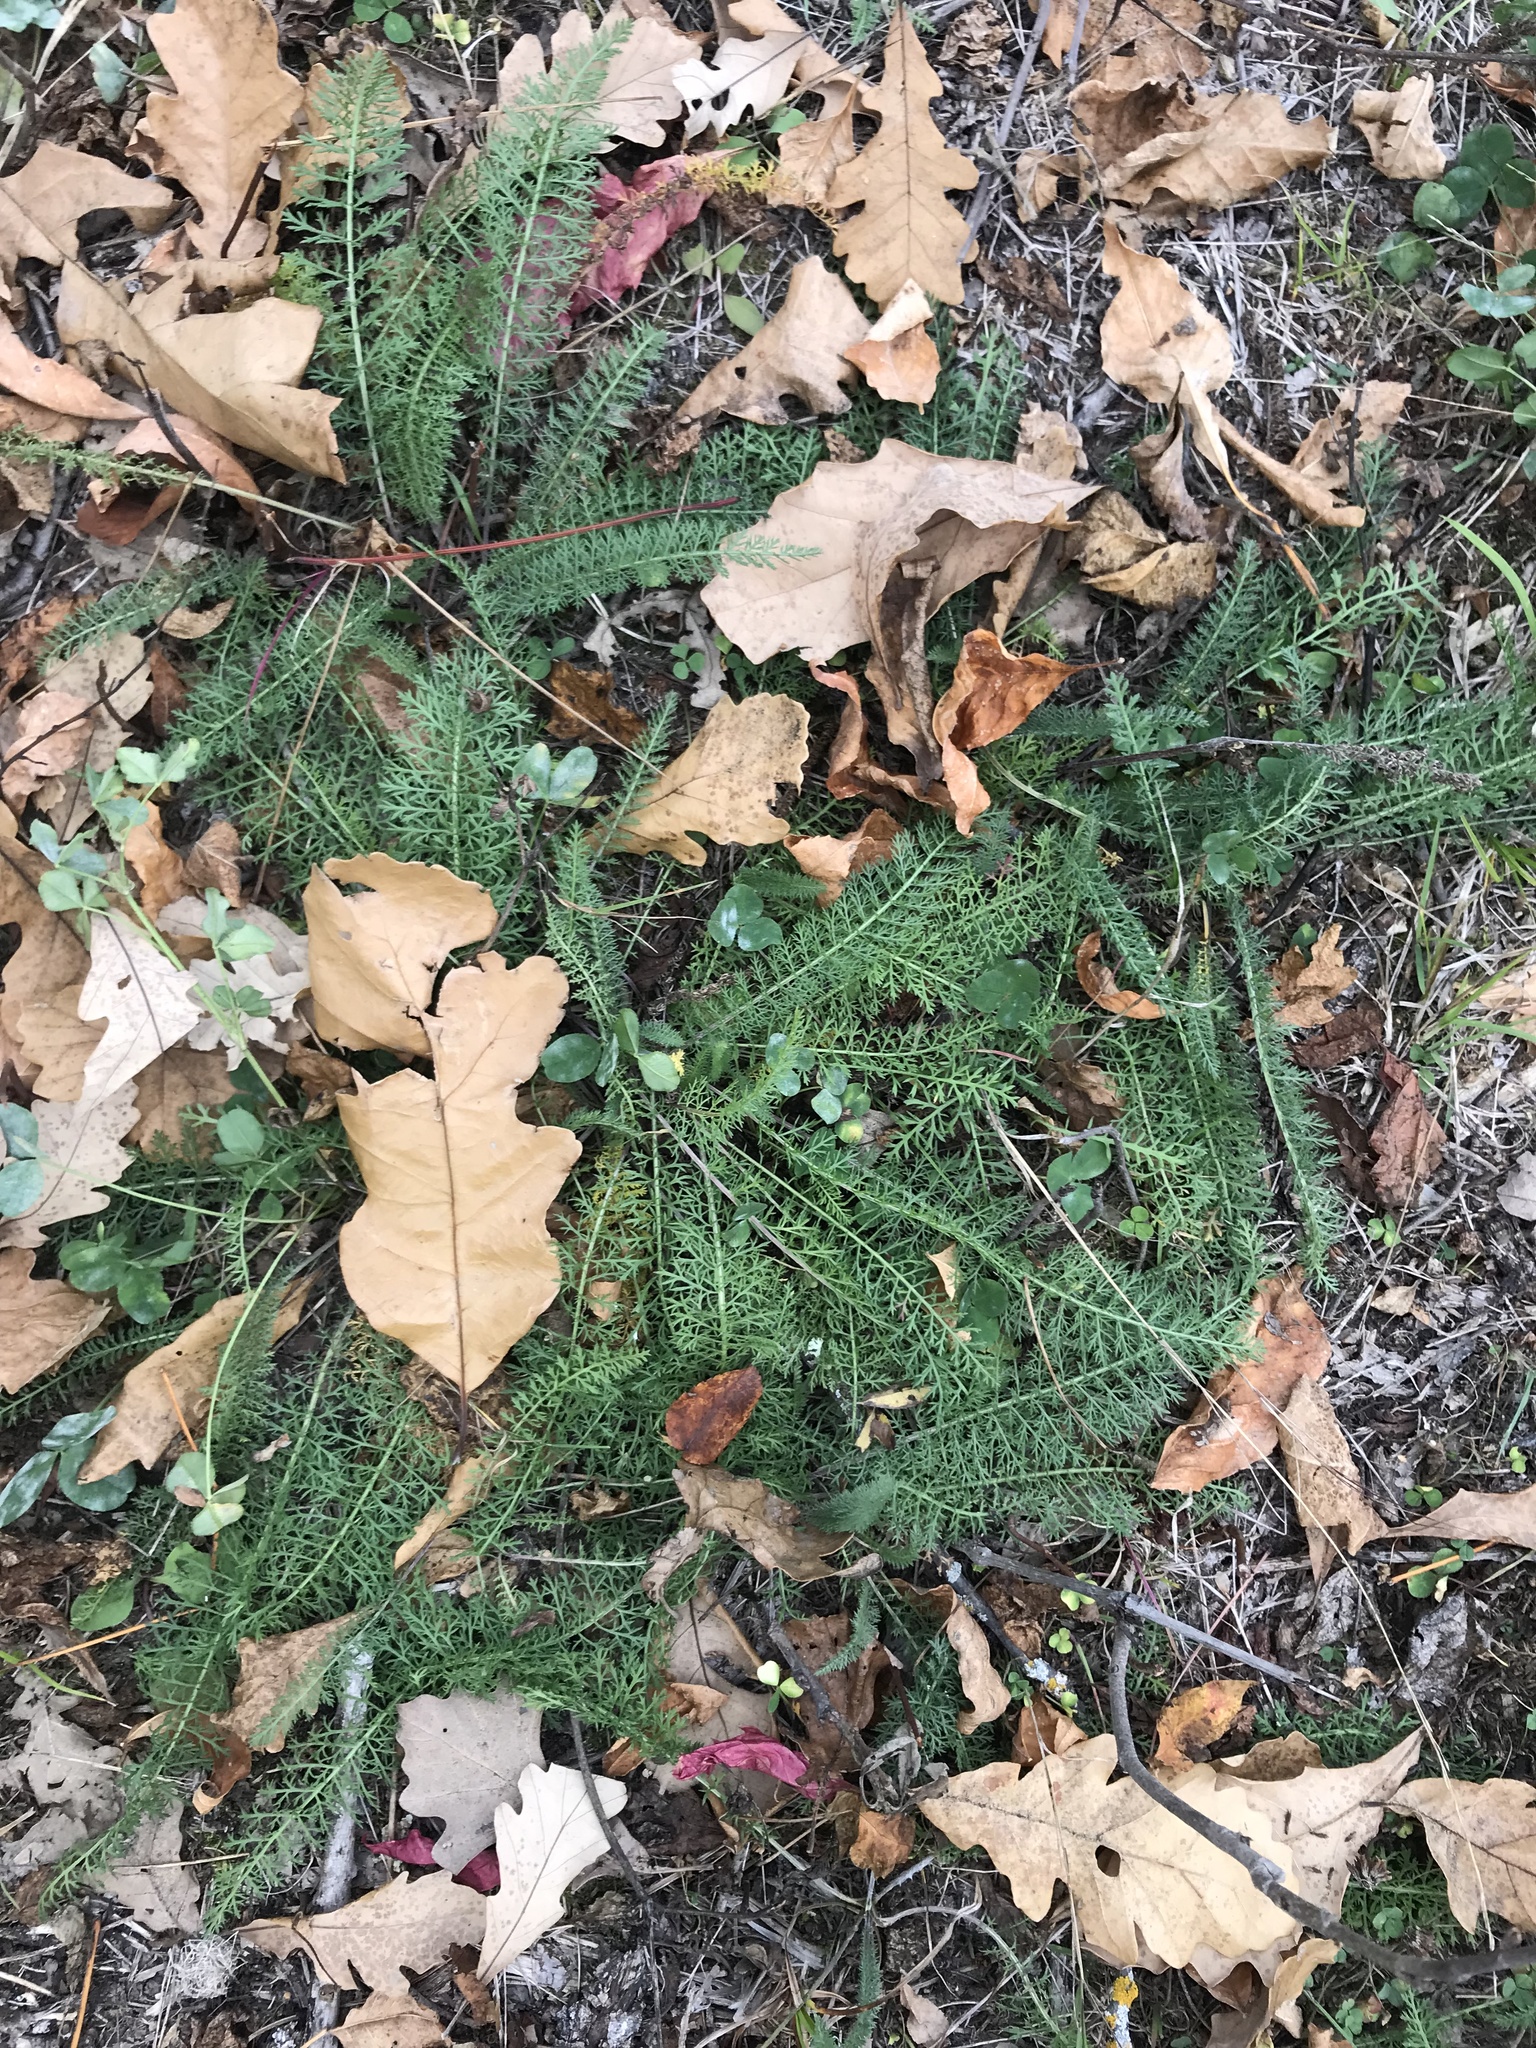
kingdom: Plantae
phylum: Tracheophyta
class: Magnoliopsida
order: Asterales
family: Asteraceae
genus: Achillea
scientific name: Achillea millefolium
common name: Yarrow
